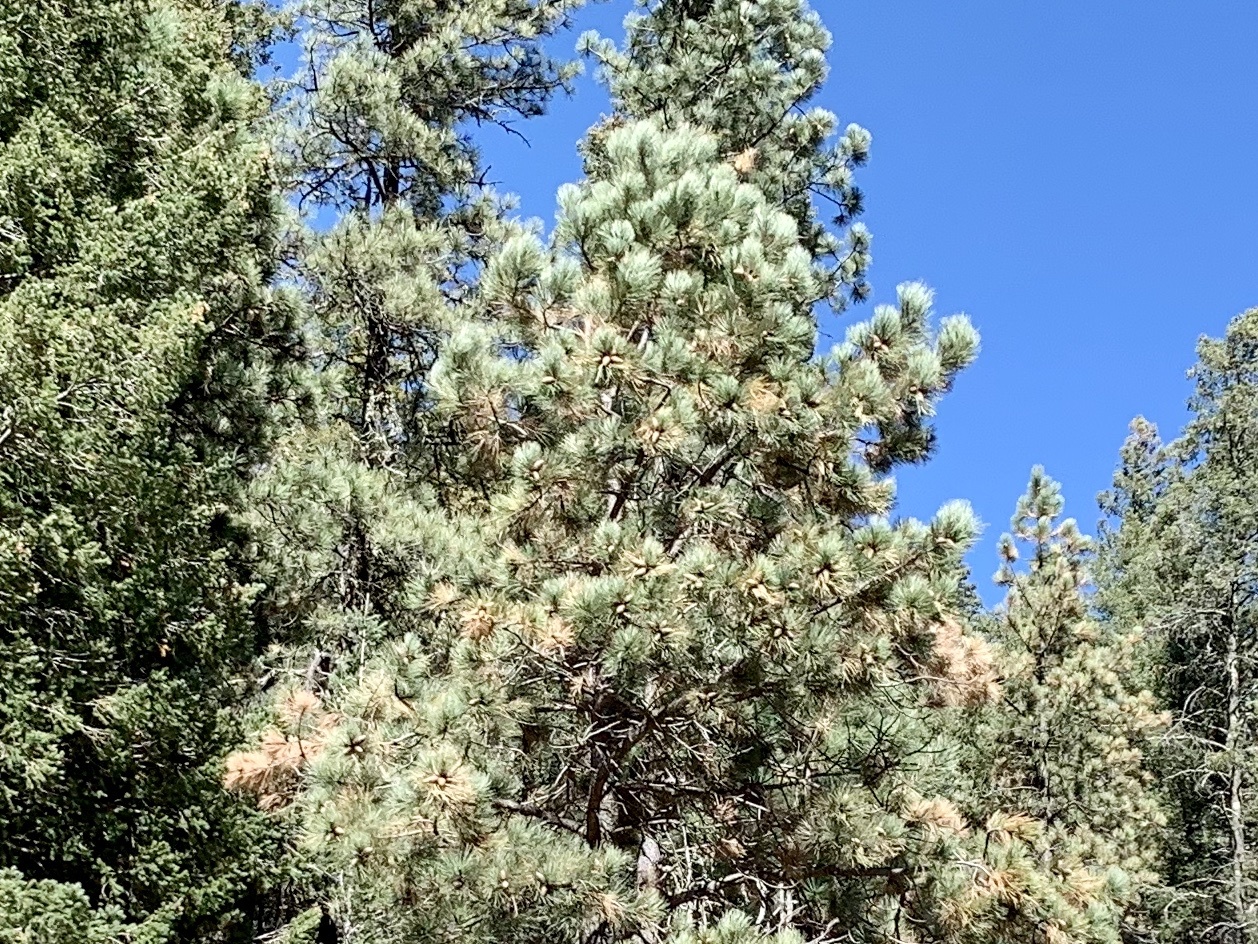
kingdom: Plantae
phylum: Tracheophyta
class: Pinopsida
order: Pinales
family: Pinaceae
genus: Pinus
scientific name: Pinus ponderosa
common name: Western yellow-pine
